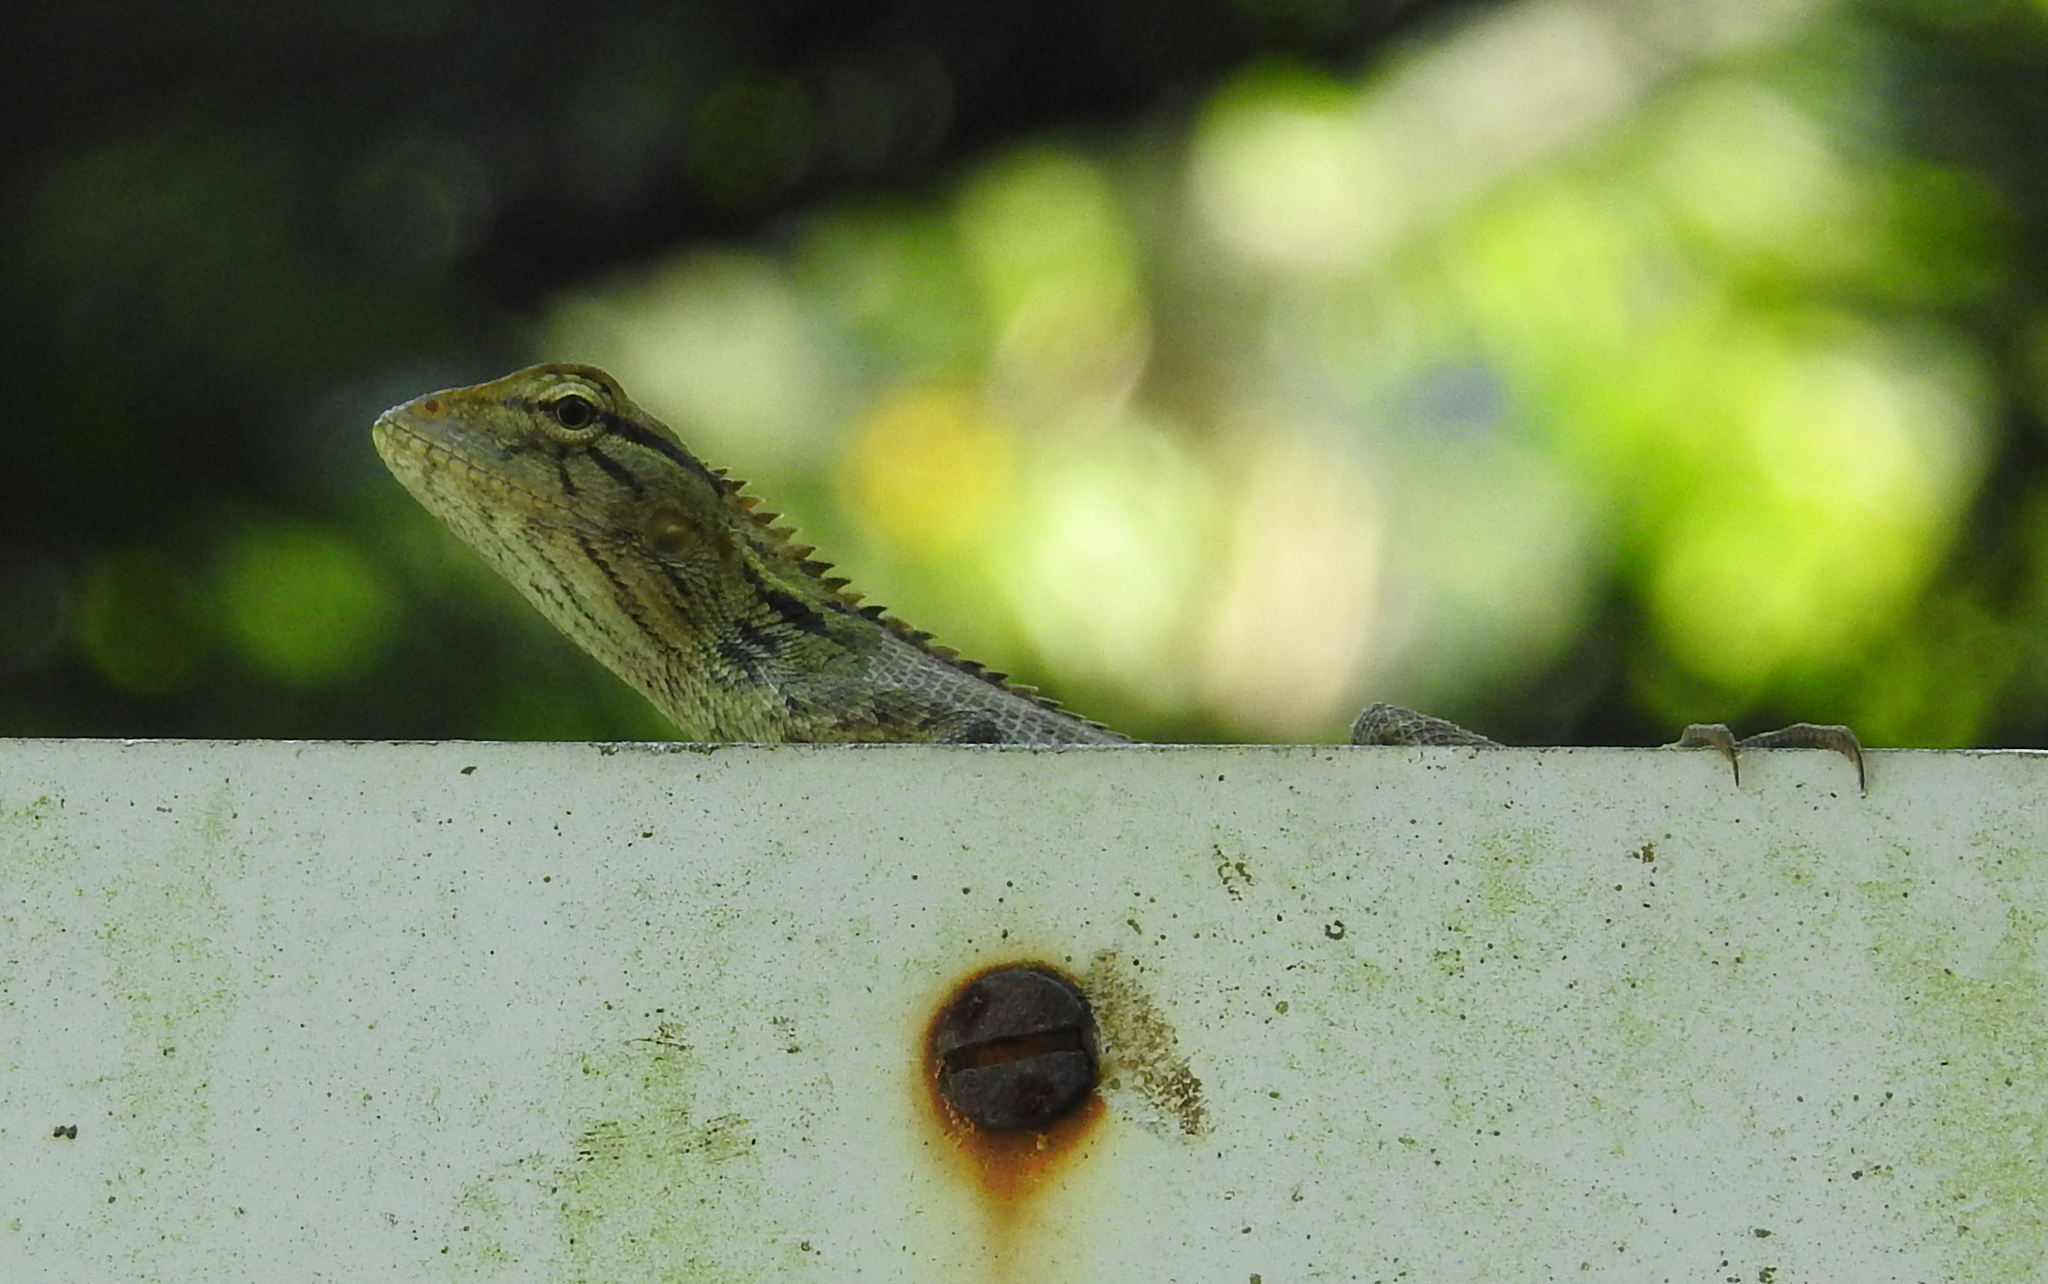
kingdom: Animalia
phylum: Chordata
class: Squamata
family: Agamidae
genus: Calotes
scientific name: Calotes versicolor
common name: Oriental garden lizard
